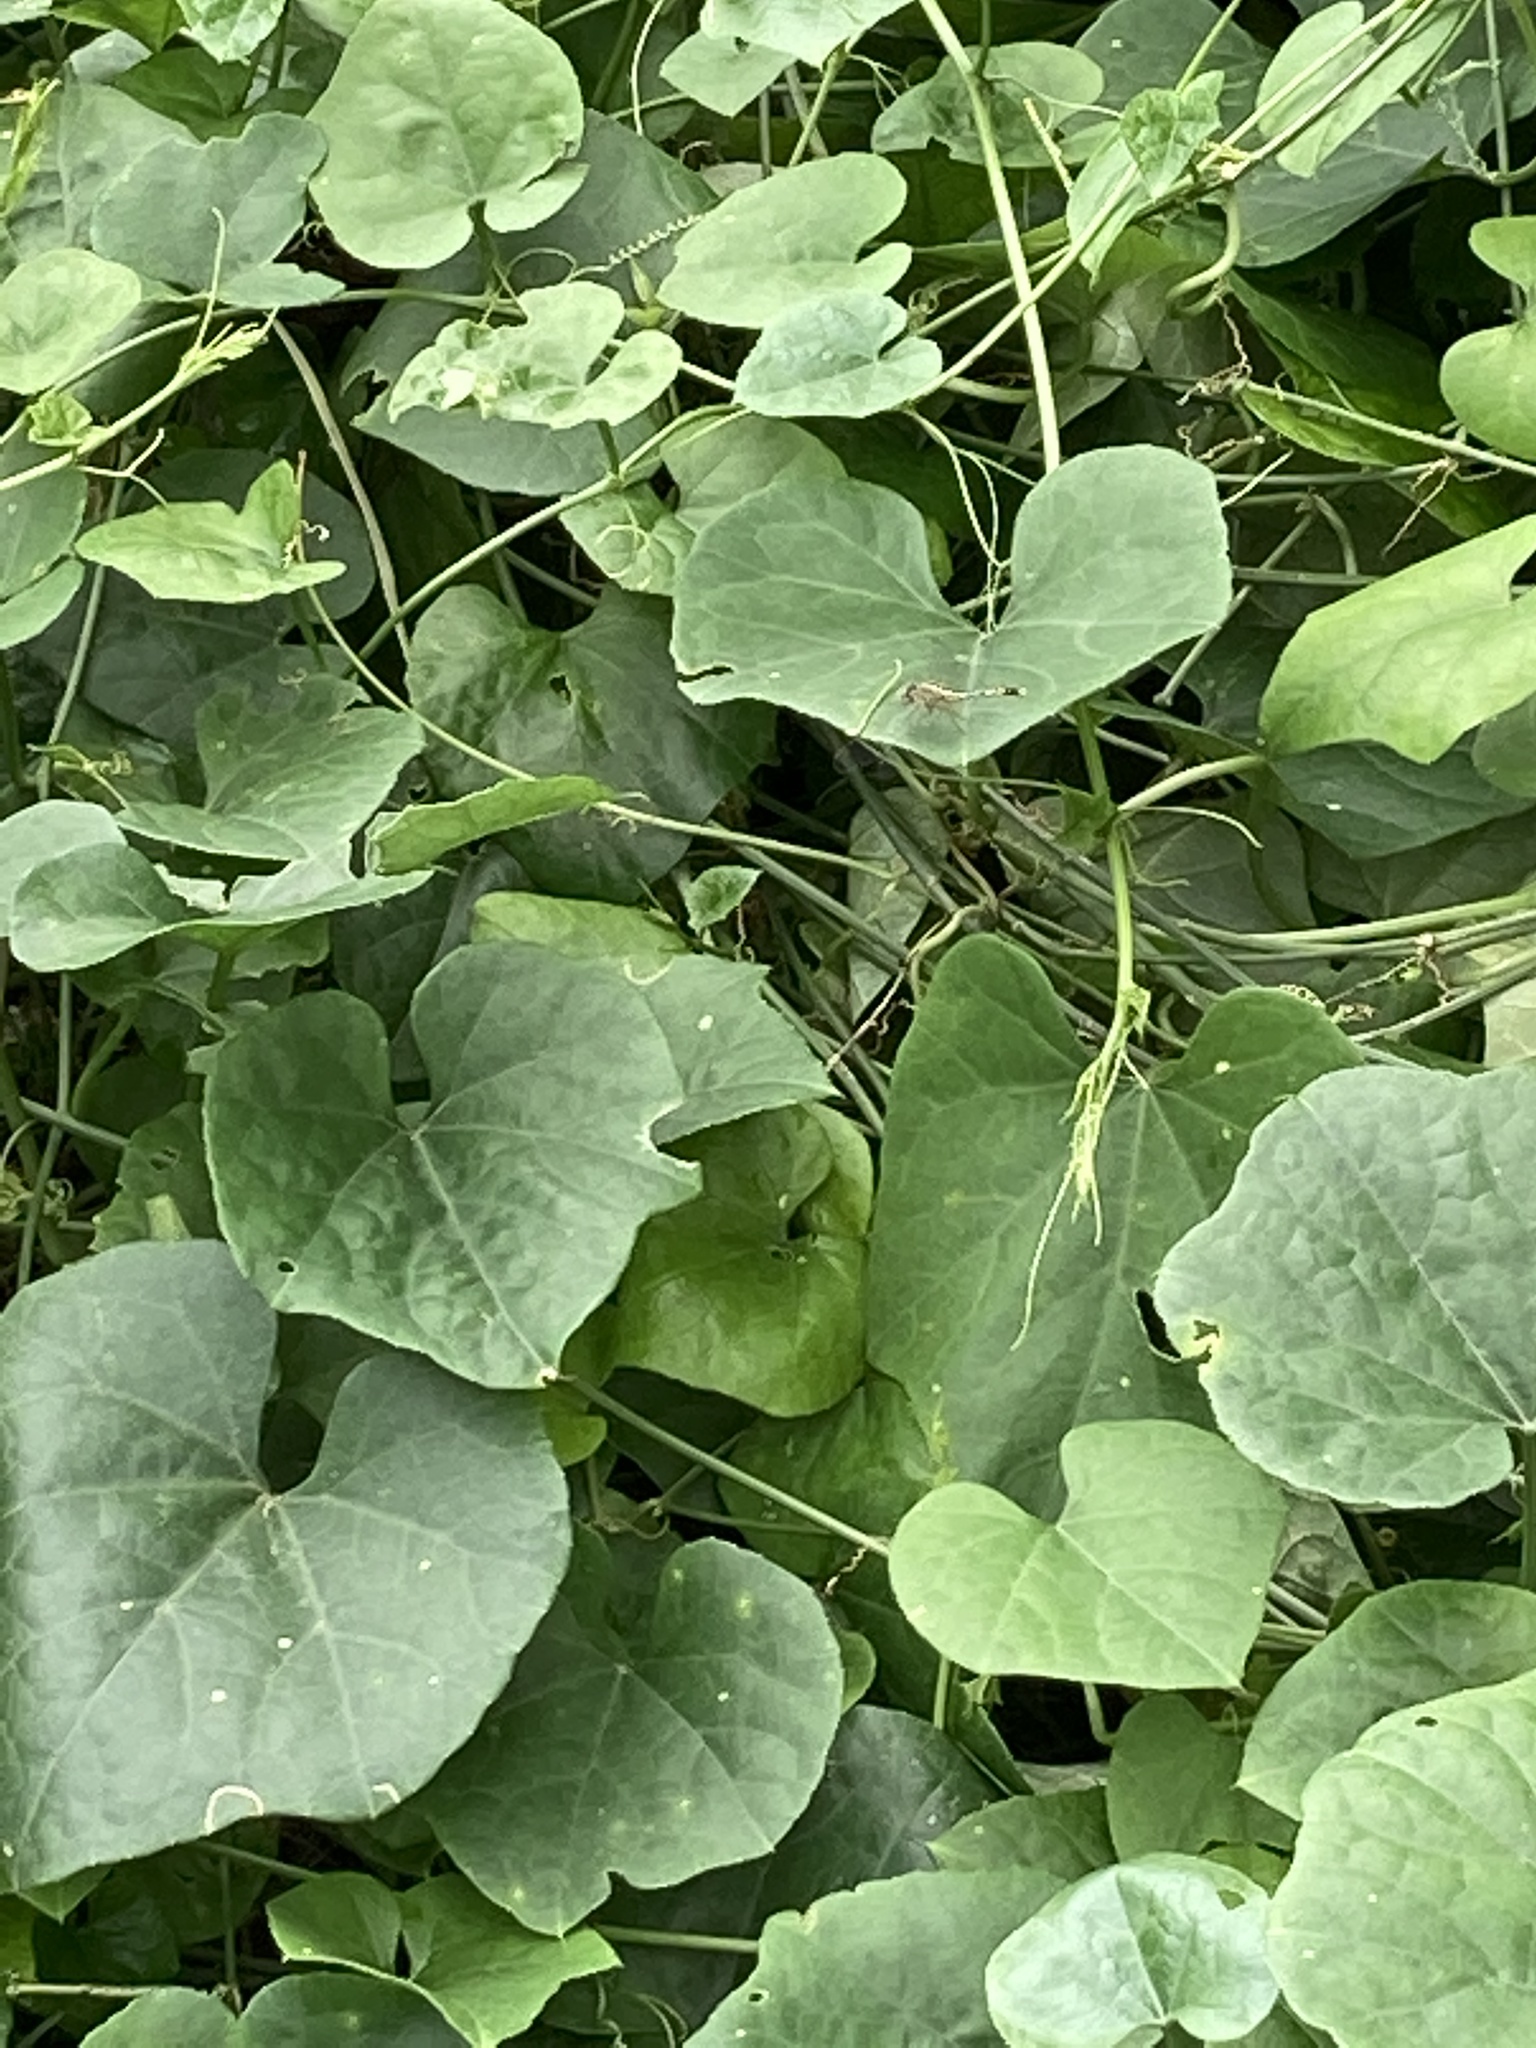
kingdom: Animalia
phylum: Arthropoda
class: Insecta
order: Odonata
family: Libellulidae
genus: Diplacodes
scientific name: Diplacodes trivialis
